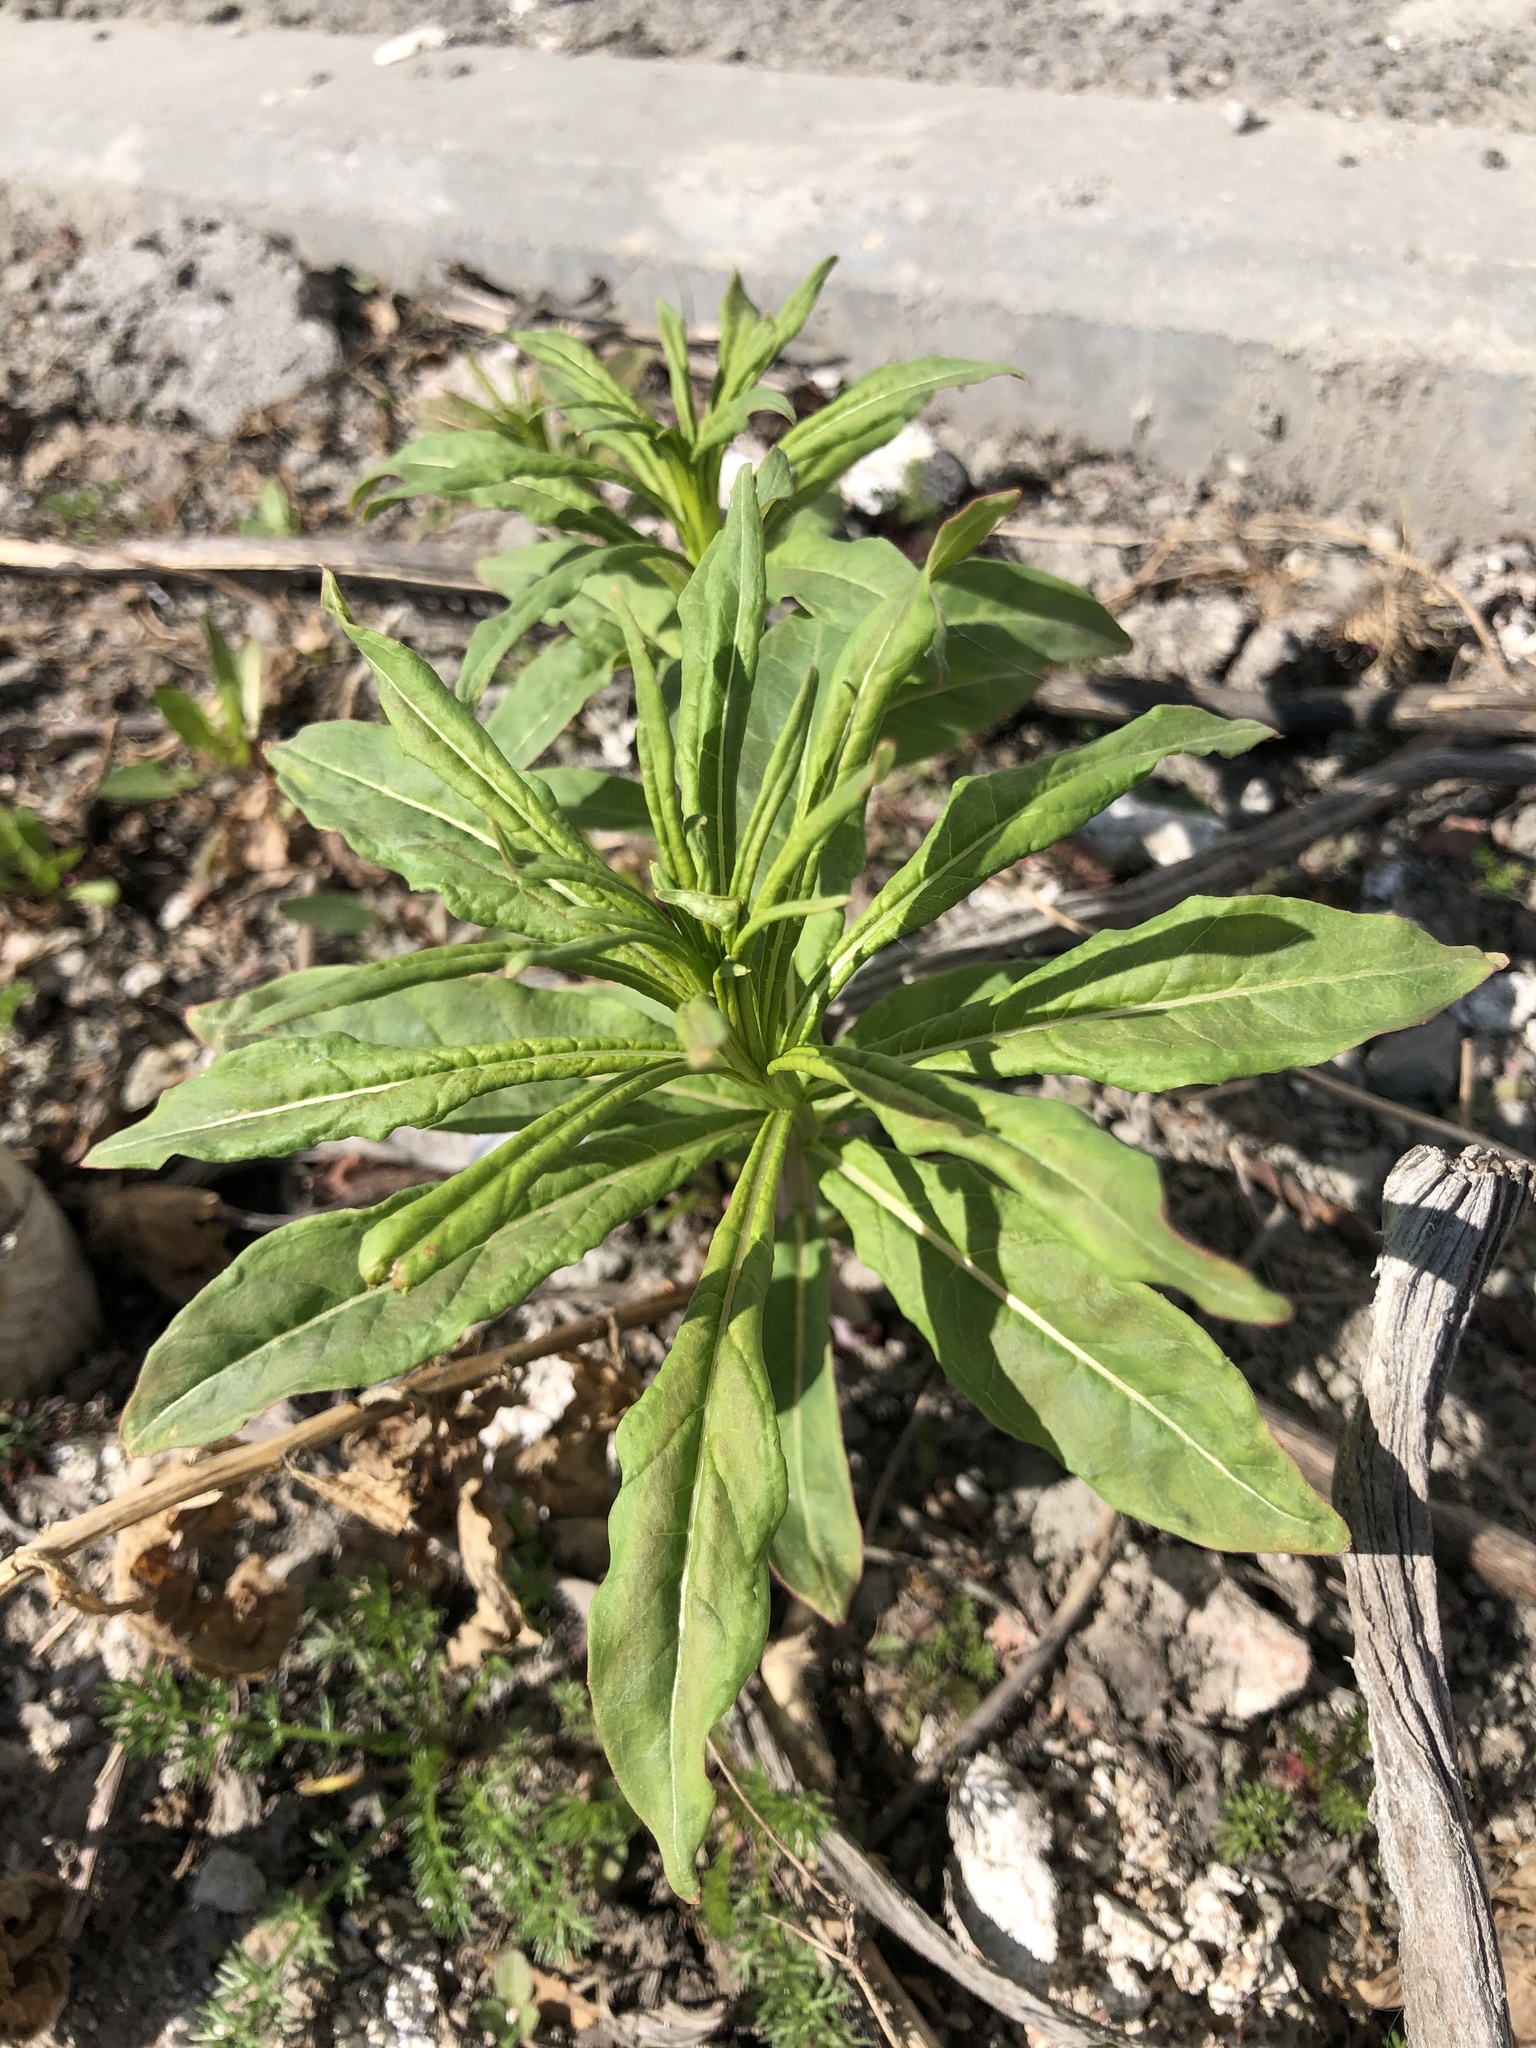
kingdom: Plantae
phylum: Tracheophyta
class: Magnoliopsida
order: Myrtales
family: Onagraceae
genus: Chamaenerion
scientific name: Chamaenerion angustifolium
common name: Fireweed
